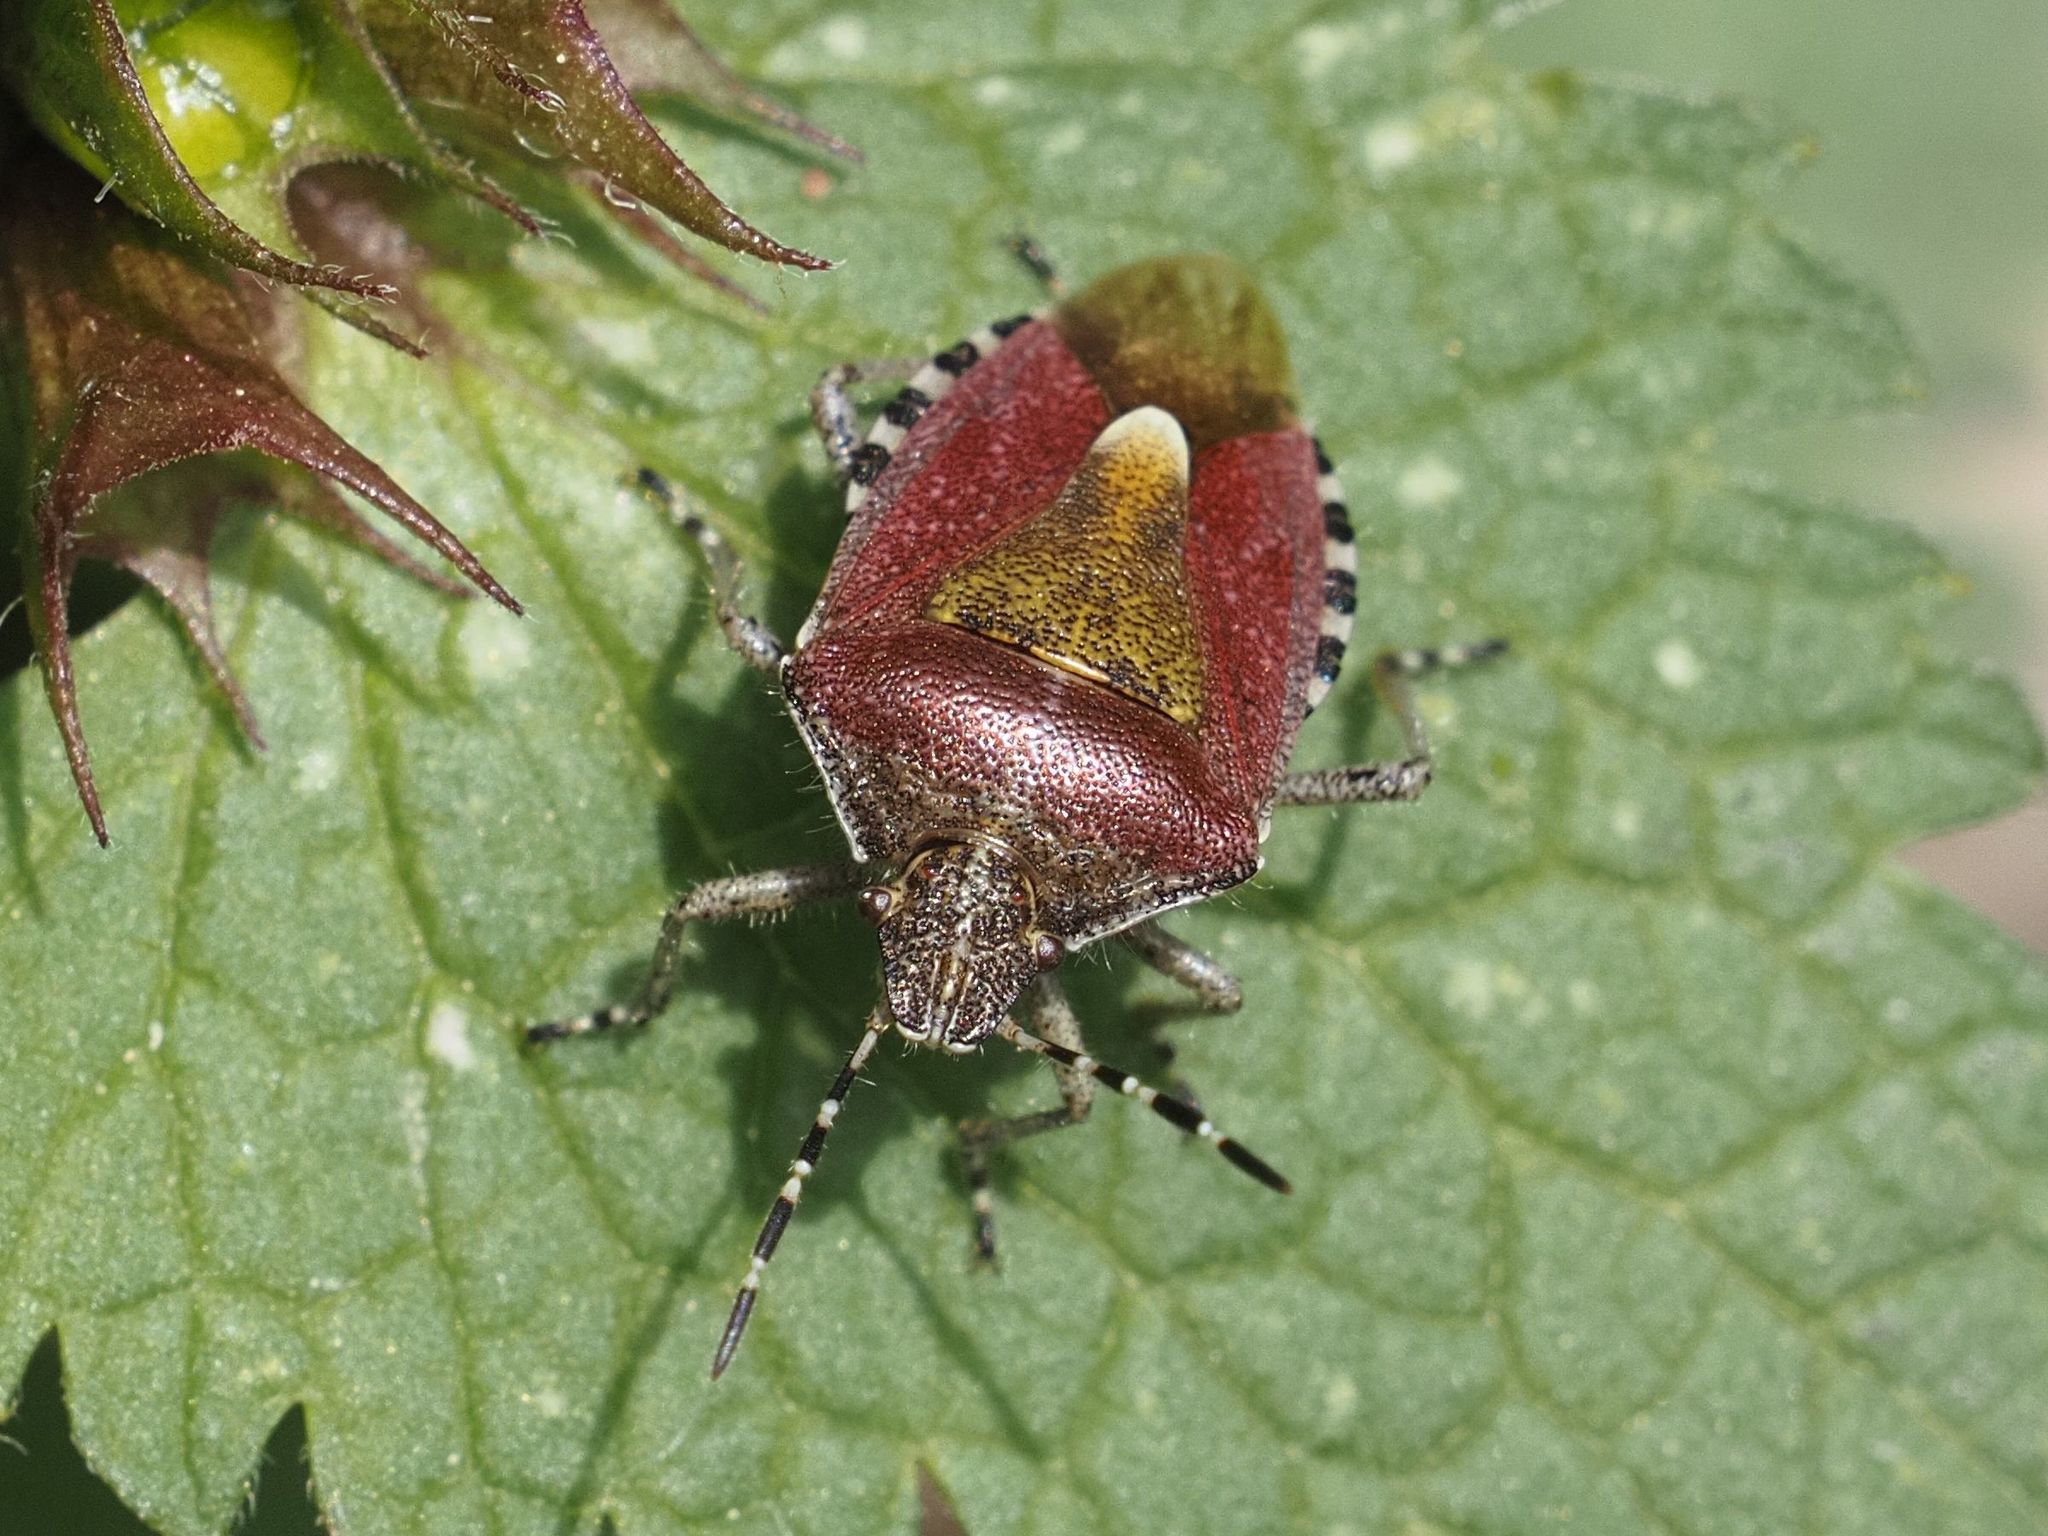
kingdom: Animalia
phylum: Arthropoda
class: Insecta
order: Hemiptera
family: Pentatomidae
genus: Dolycoris
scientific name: Dolycoris baccarum
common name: Sloe bug
